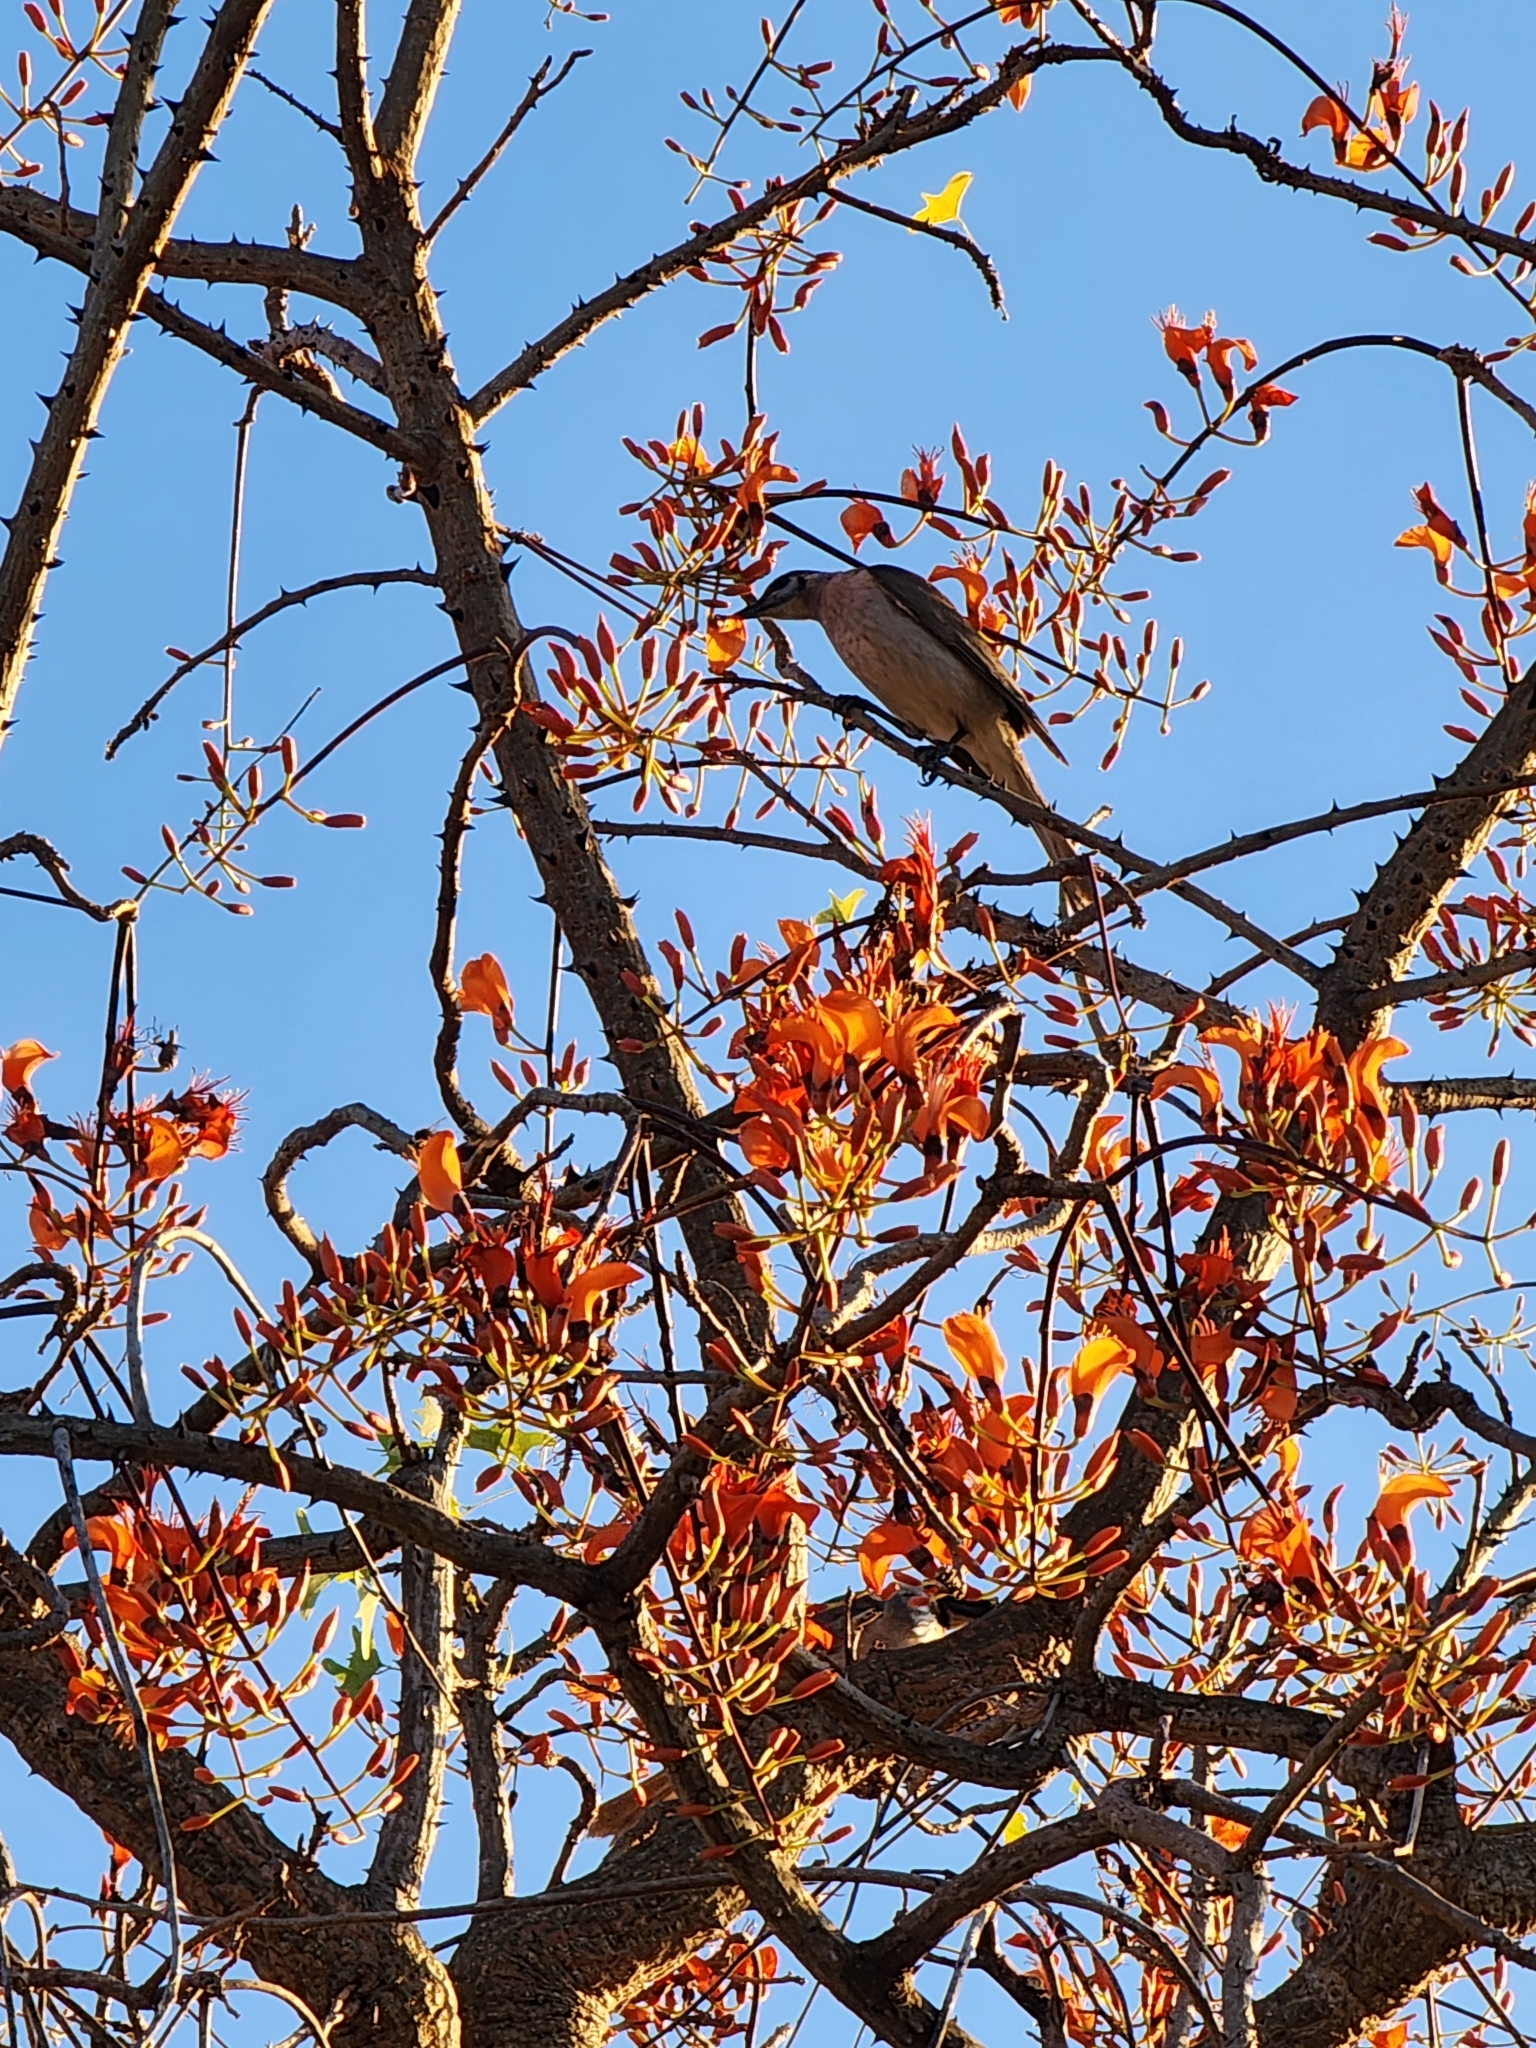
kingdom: Animalia
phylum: Chordata
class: Aves
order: Passeriformes
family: Meliphagidae
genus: Philemon
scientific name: Philemon citreogularis
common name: Little friarbird
